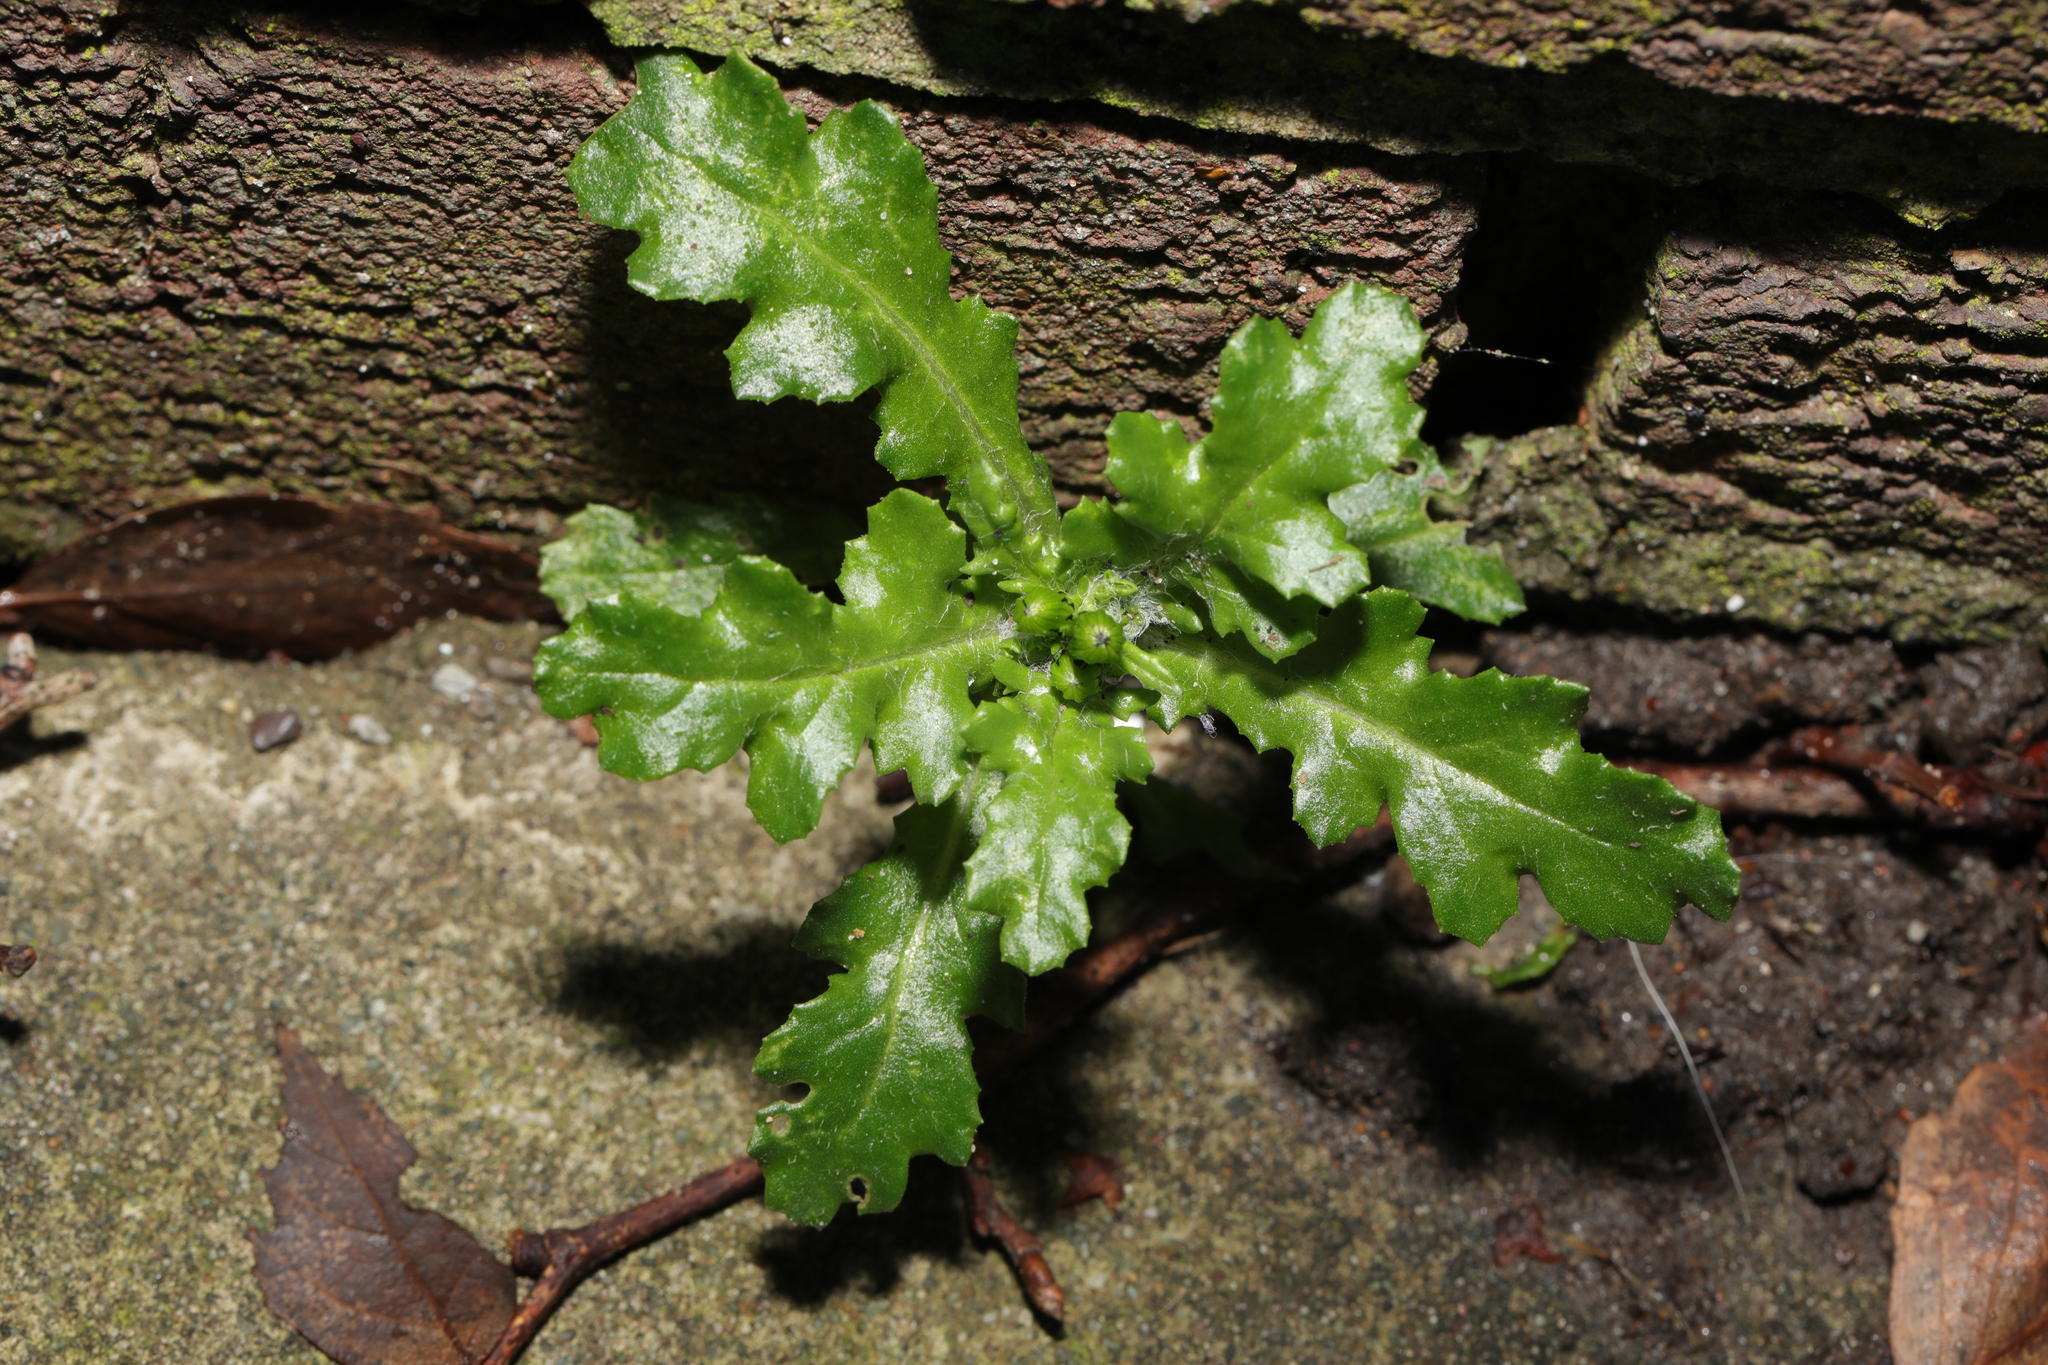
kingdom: Plantae
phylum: Tracheophyta
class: Magnoliopsida
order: Asterales
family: Asteraceae
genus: Senecio
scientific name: Senecio vulgaris
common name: Old-man-in-the-spring
